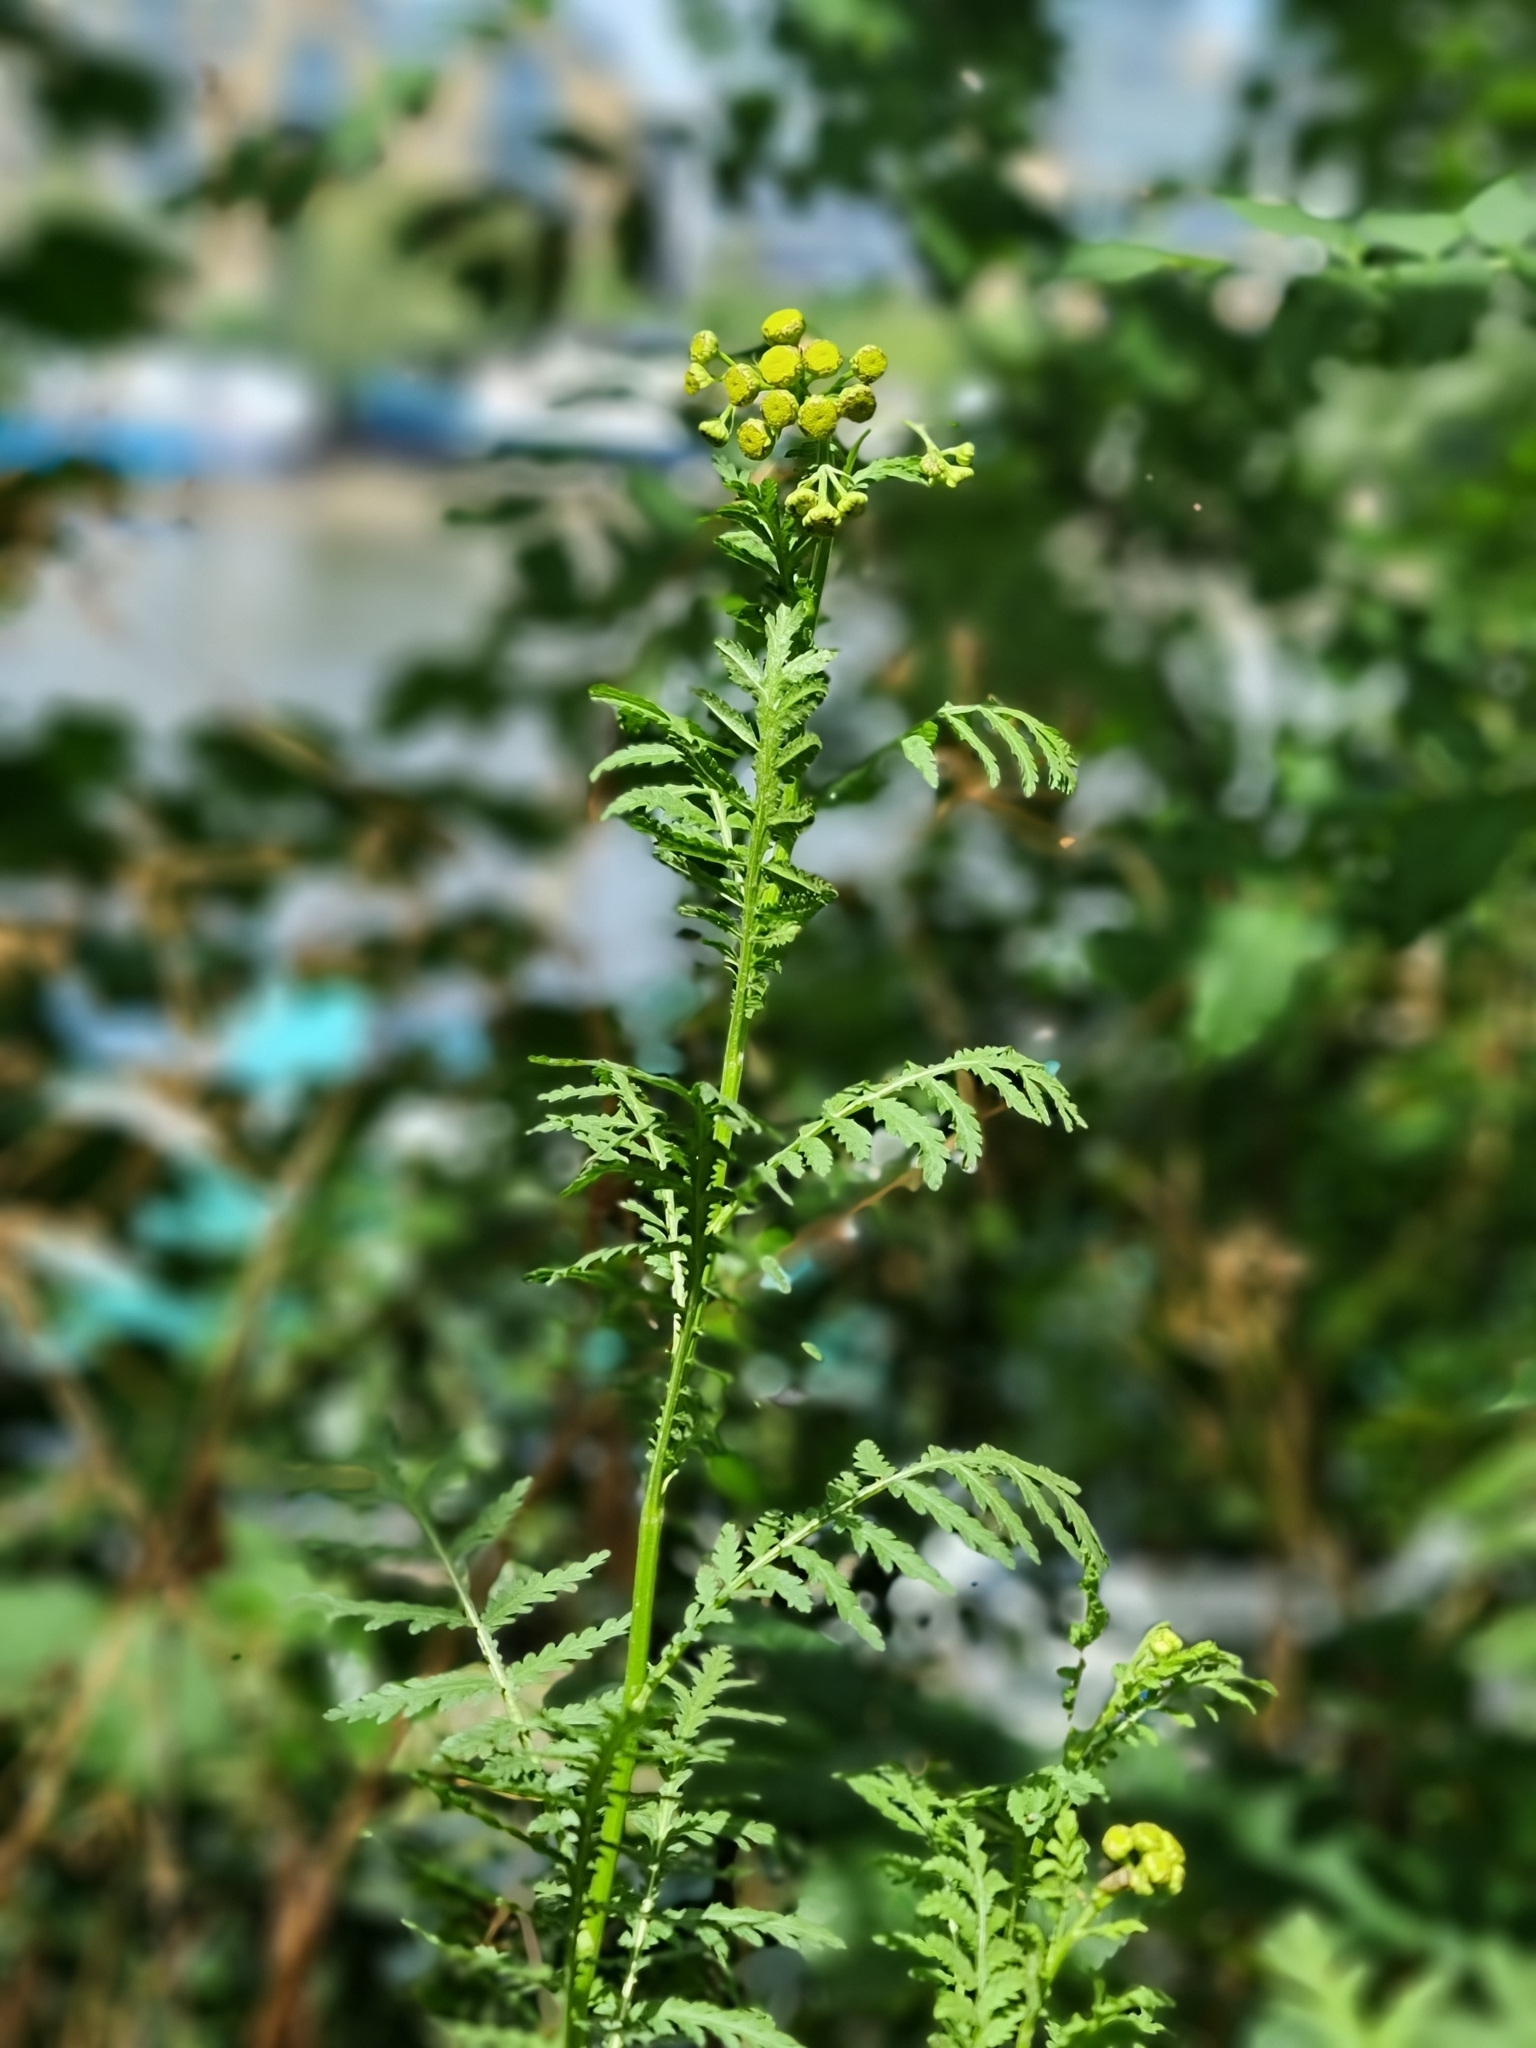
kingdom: Plantae
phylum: Tracheophyta
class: Magnoliopsida
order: Asterales
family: Asteraceae
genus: Tanacetum
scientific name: Tanacetum vulgare
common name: Common tansy
